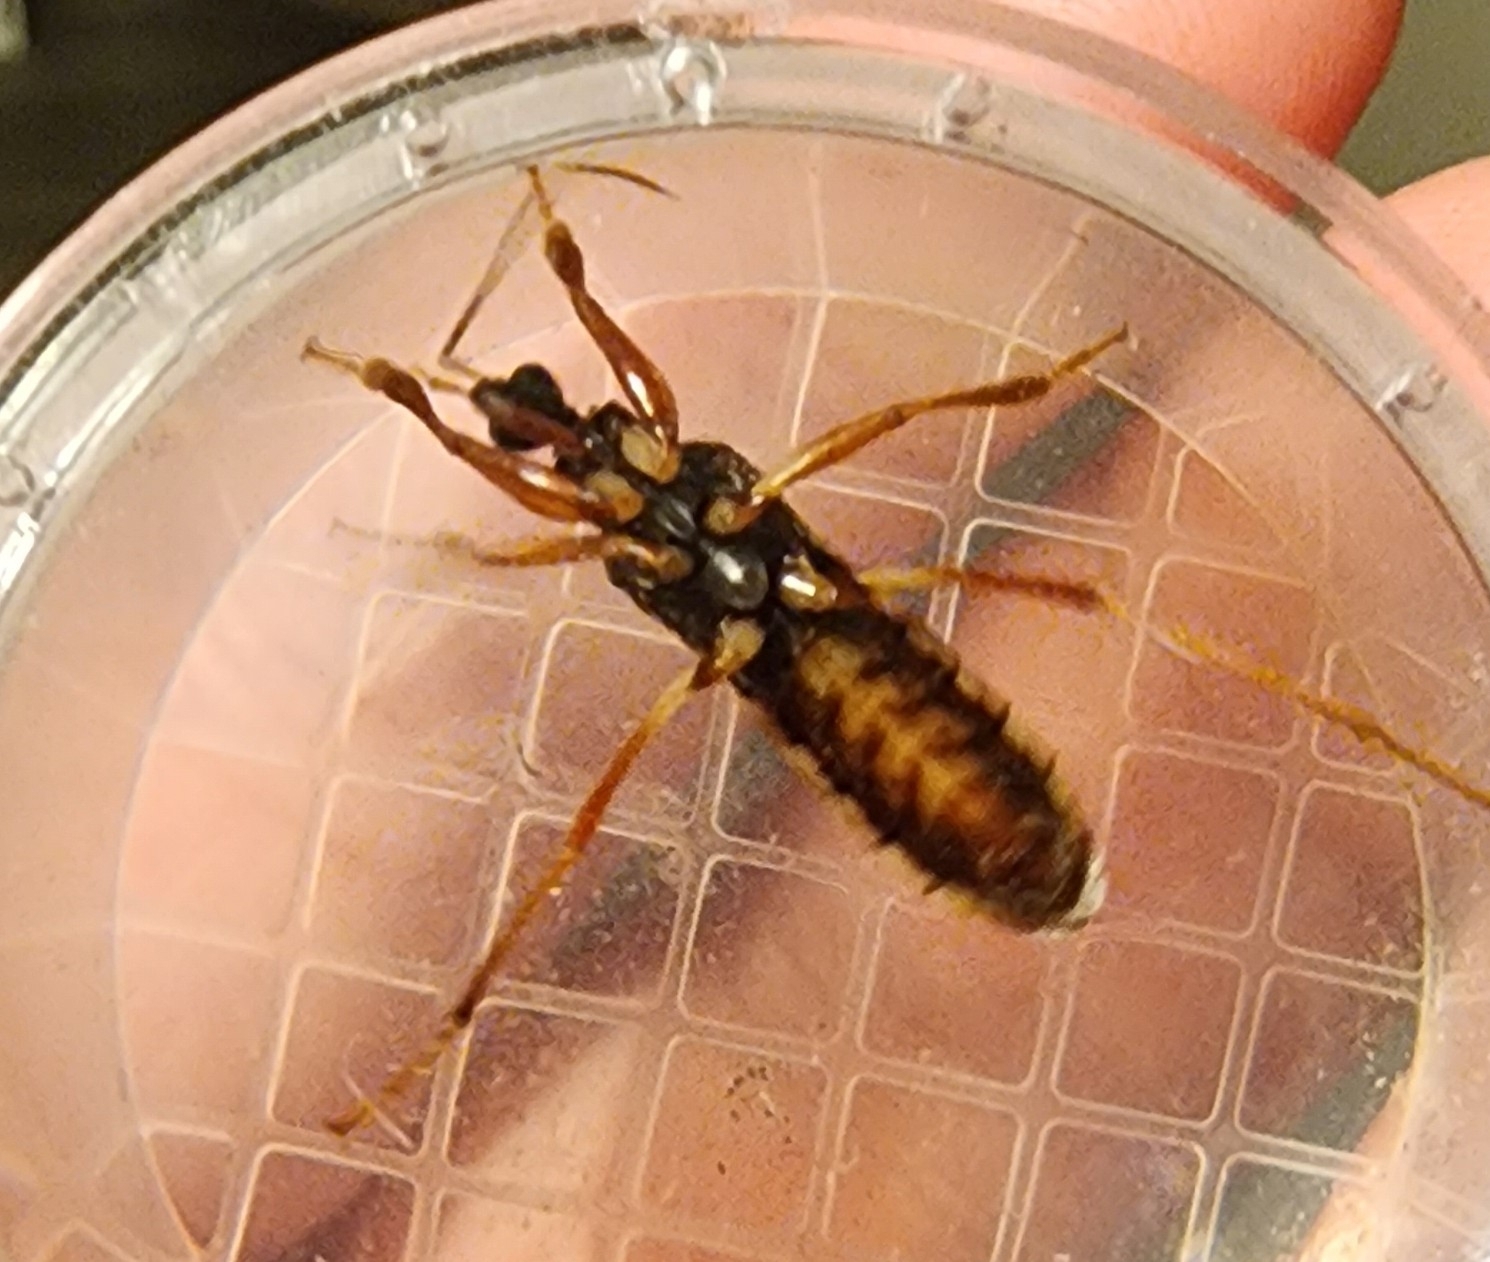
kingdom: Animalia
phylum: Arthropoda
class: Insecta
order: Hemiptera
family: Reduviidae
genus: Rasahus
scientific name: Rasahus hamatus
